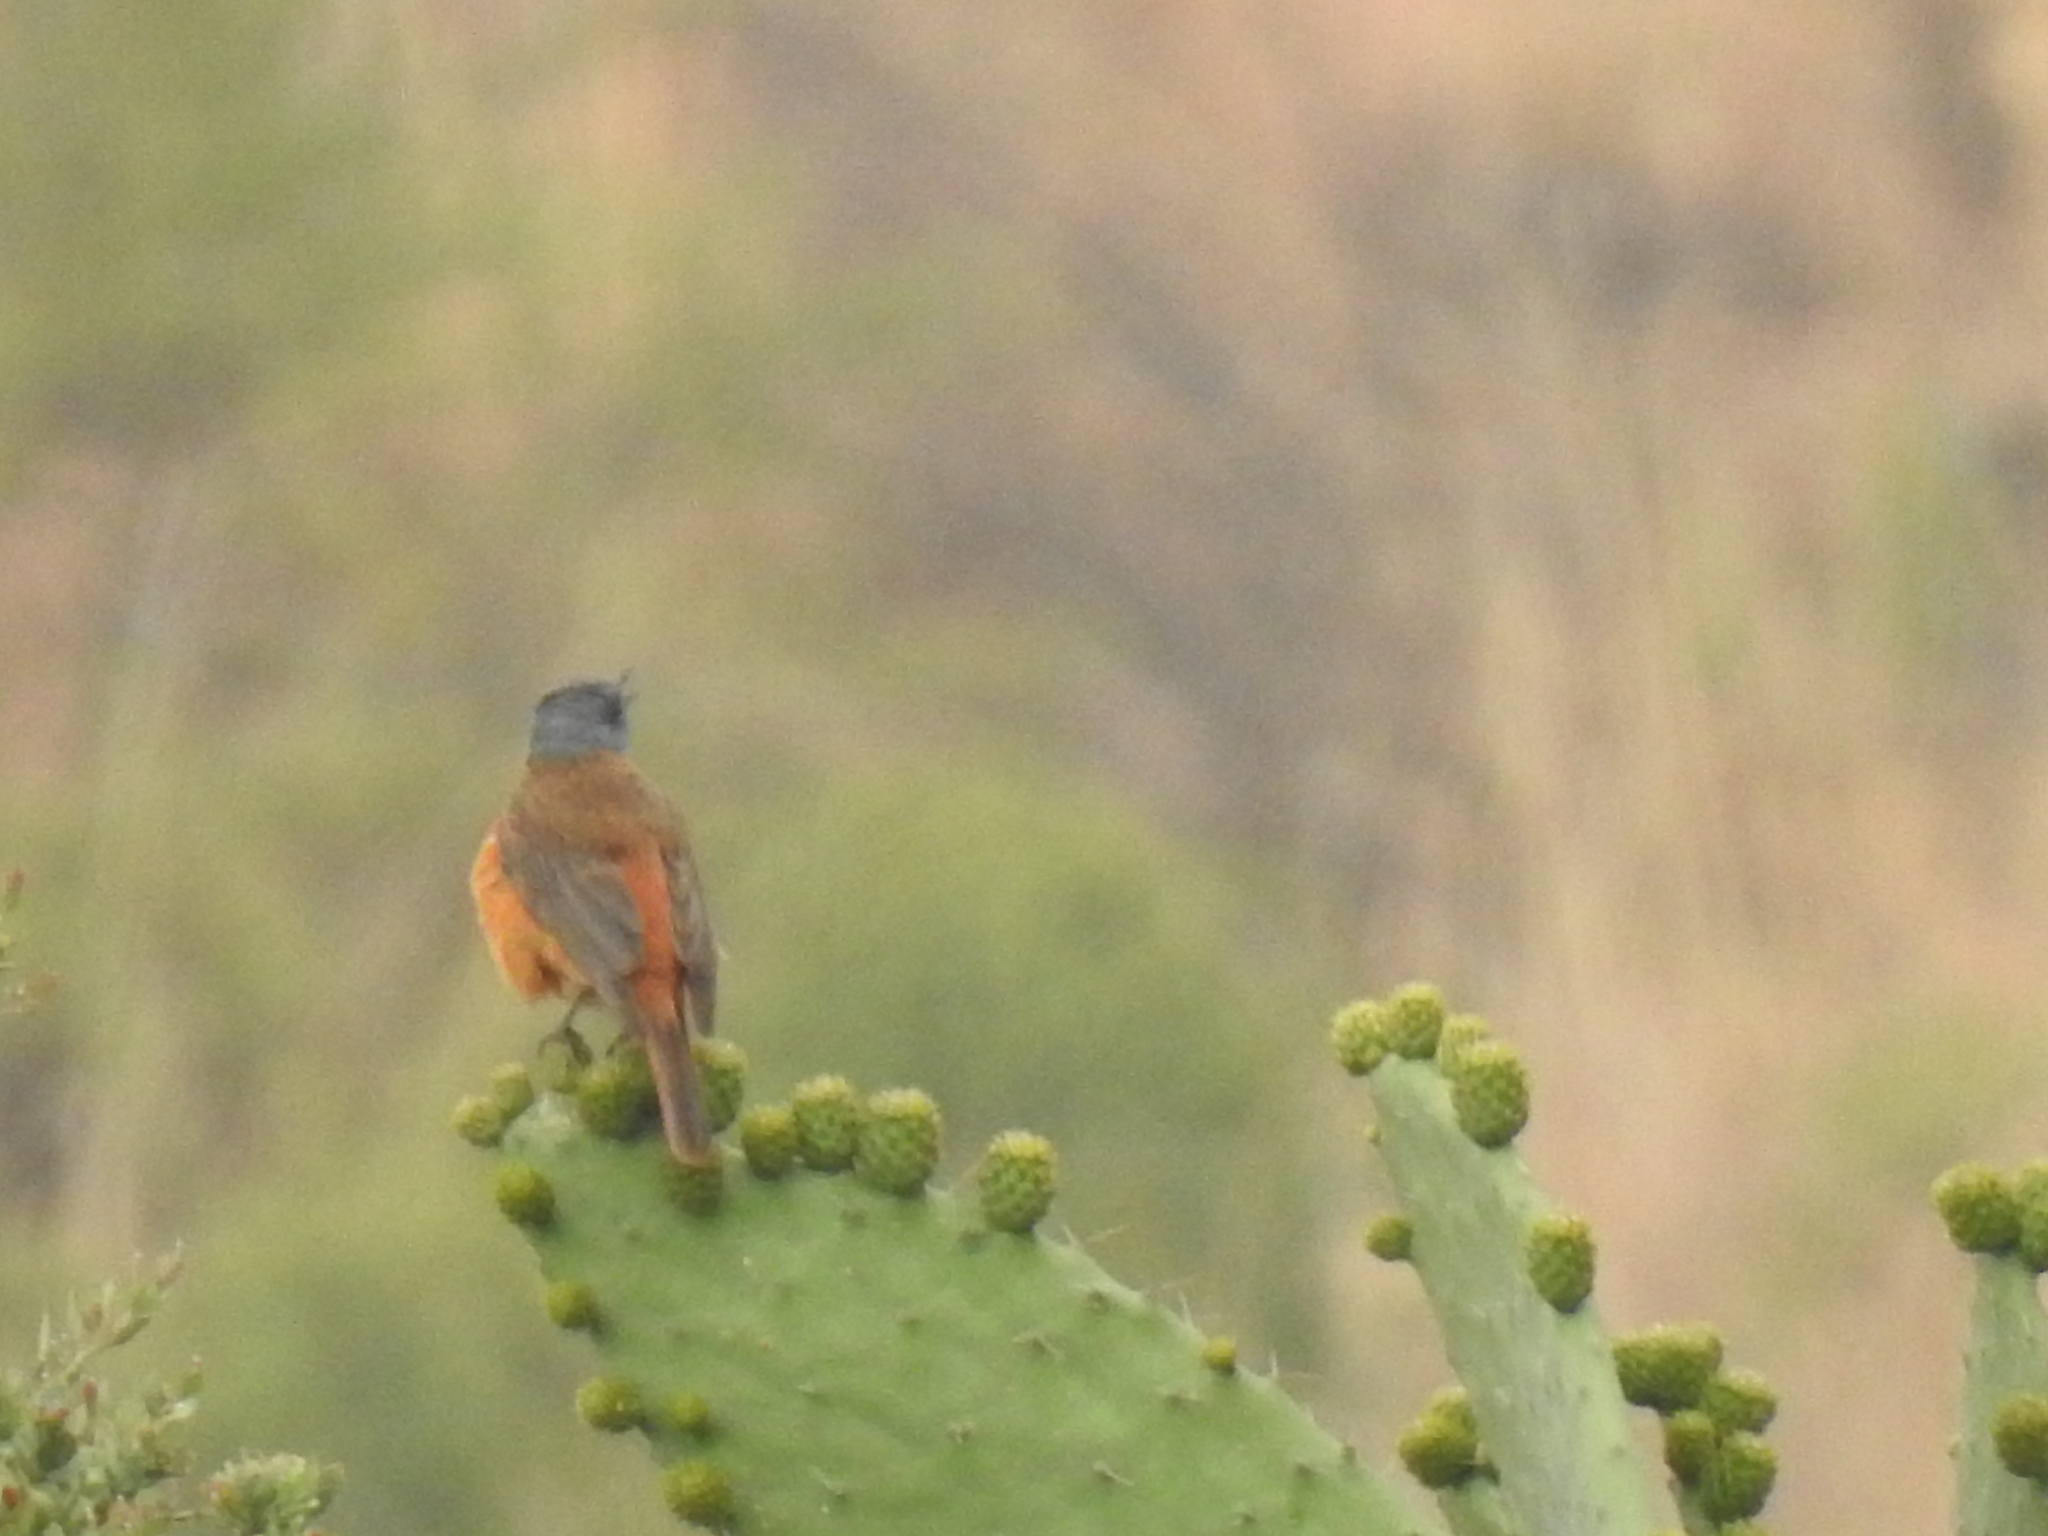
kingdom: Animalia
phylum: Chordata
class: Aves
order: Passeriformes
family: Muscicapidae
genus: Monticola
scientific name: Monticola rupestris
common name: Cape rock thrush
